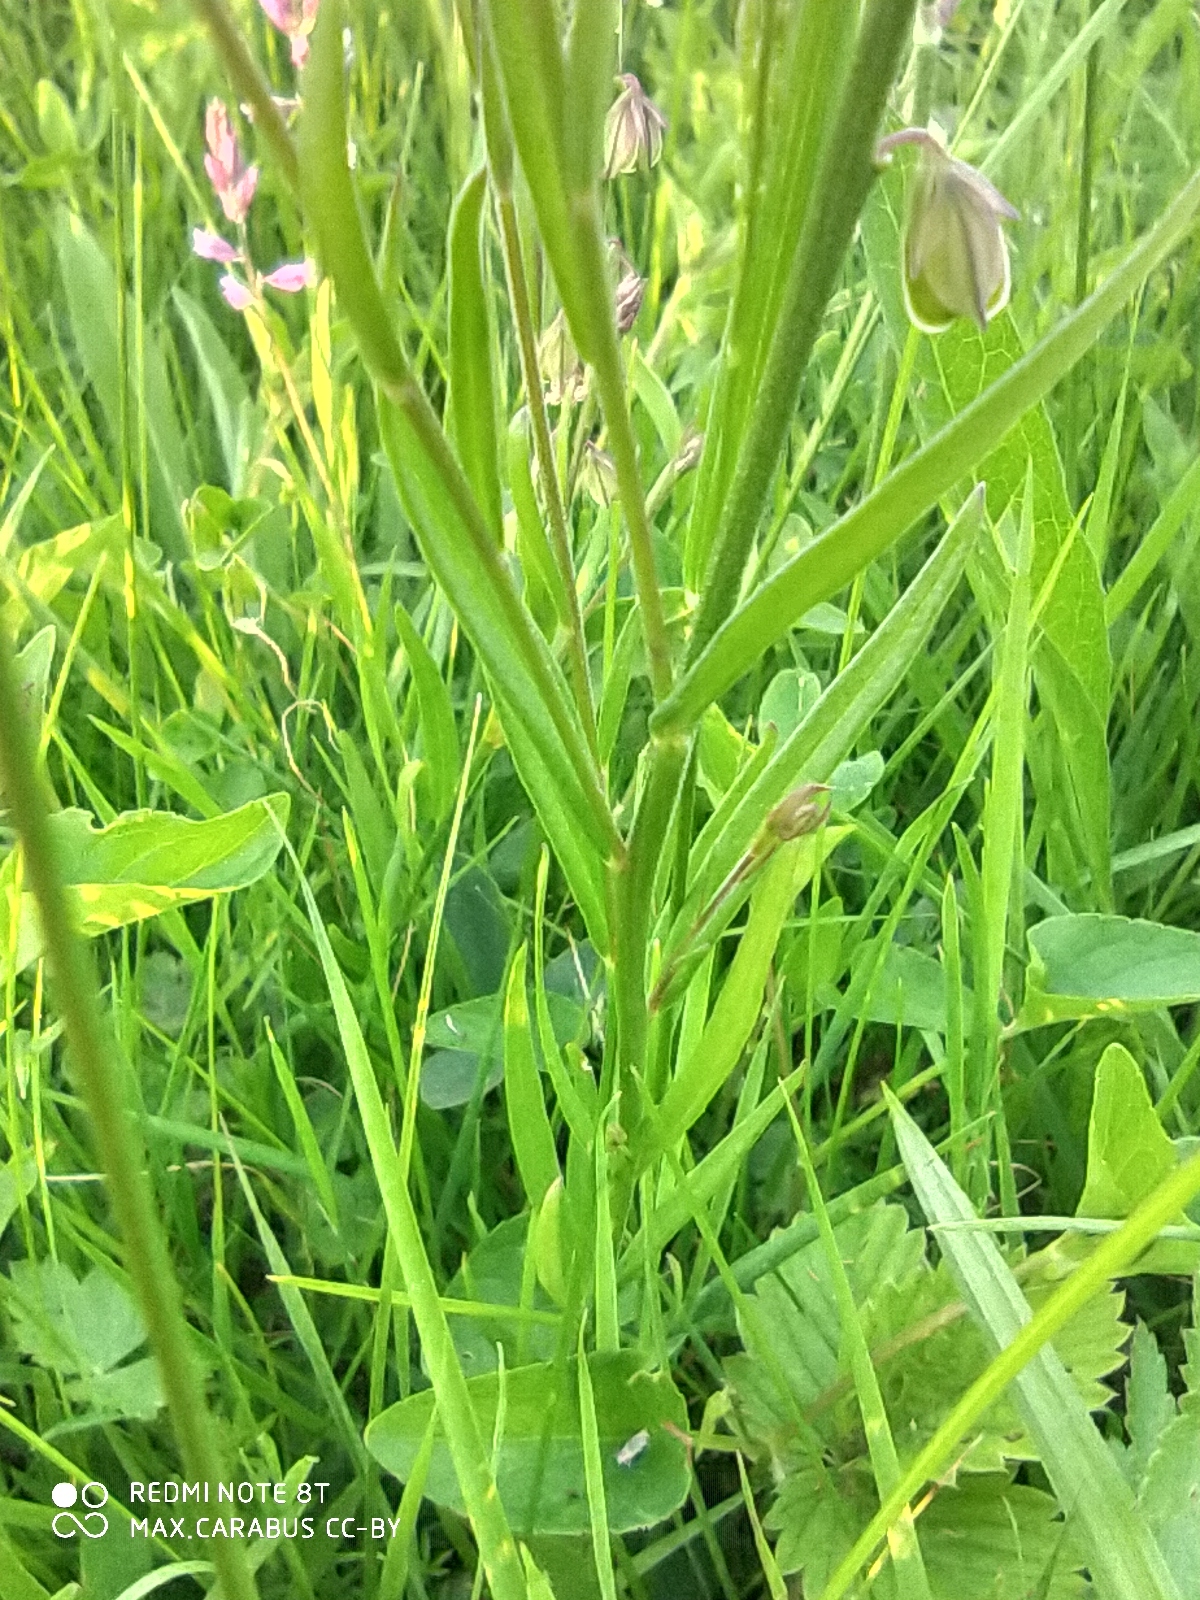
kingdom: Plantae
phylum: Tracheophyta
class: Magnoliopsida
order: Fabales
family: Polygalaceae
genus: Polygala
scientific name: Polygala comosa
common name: Tufted milkwort
